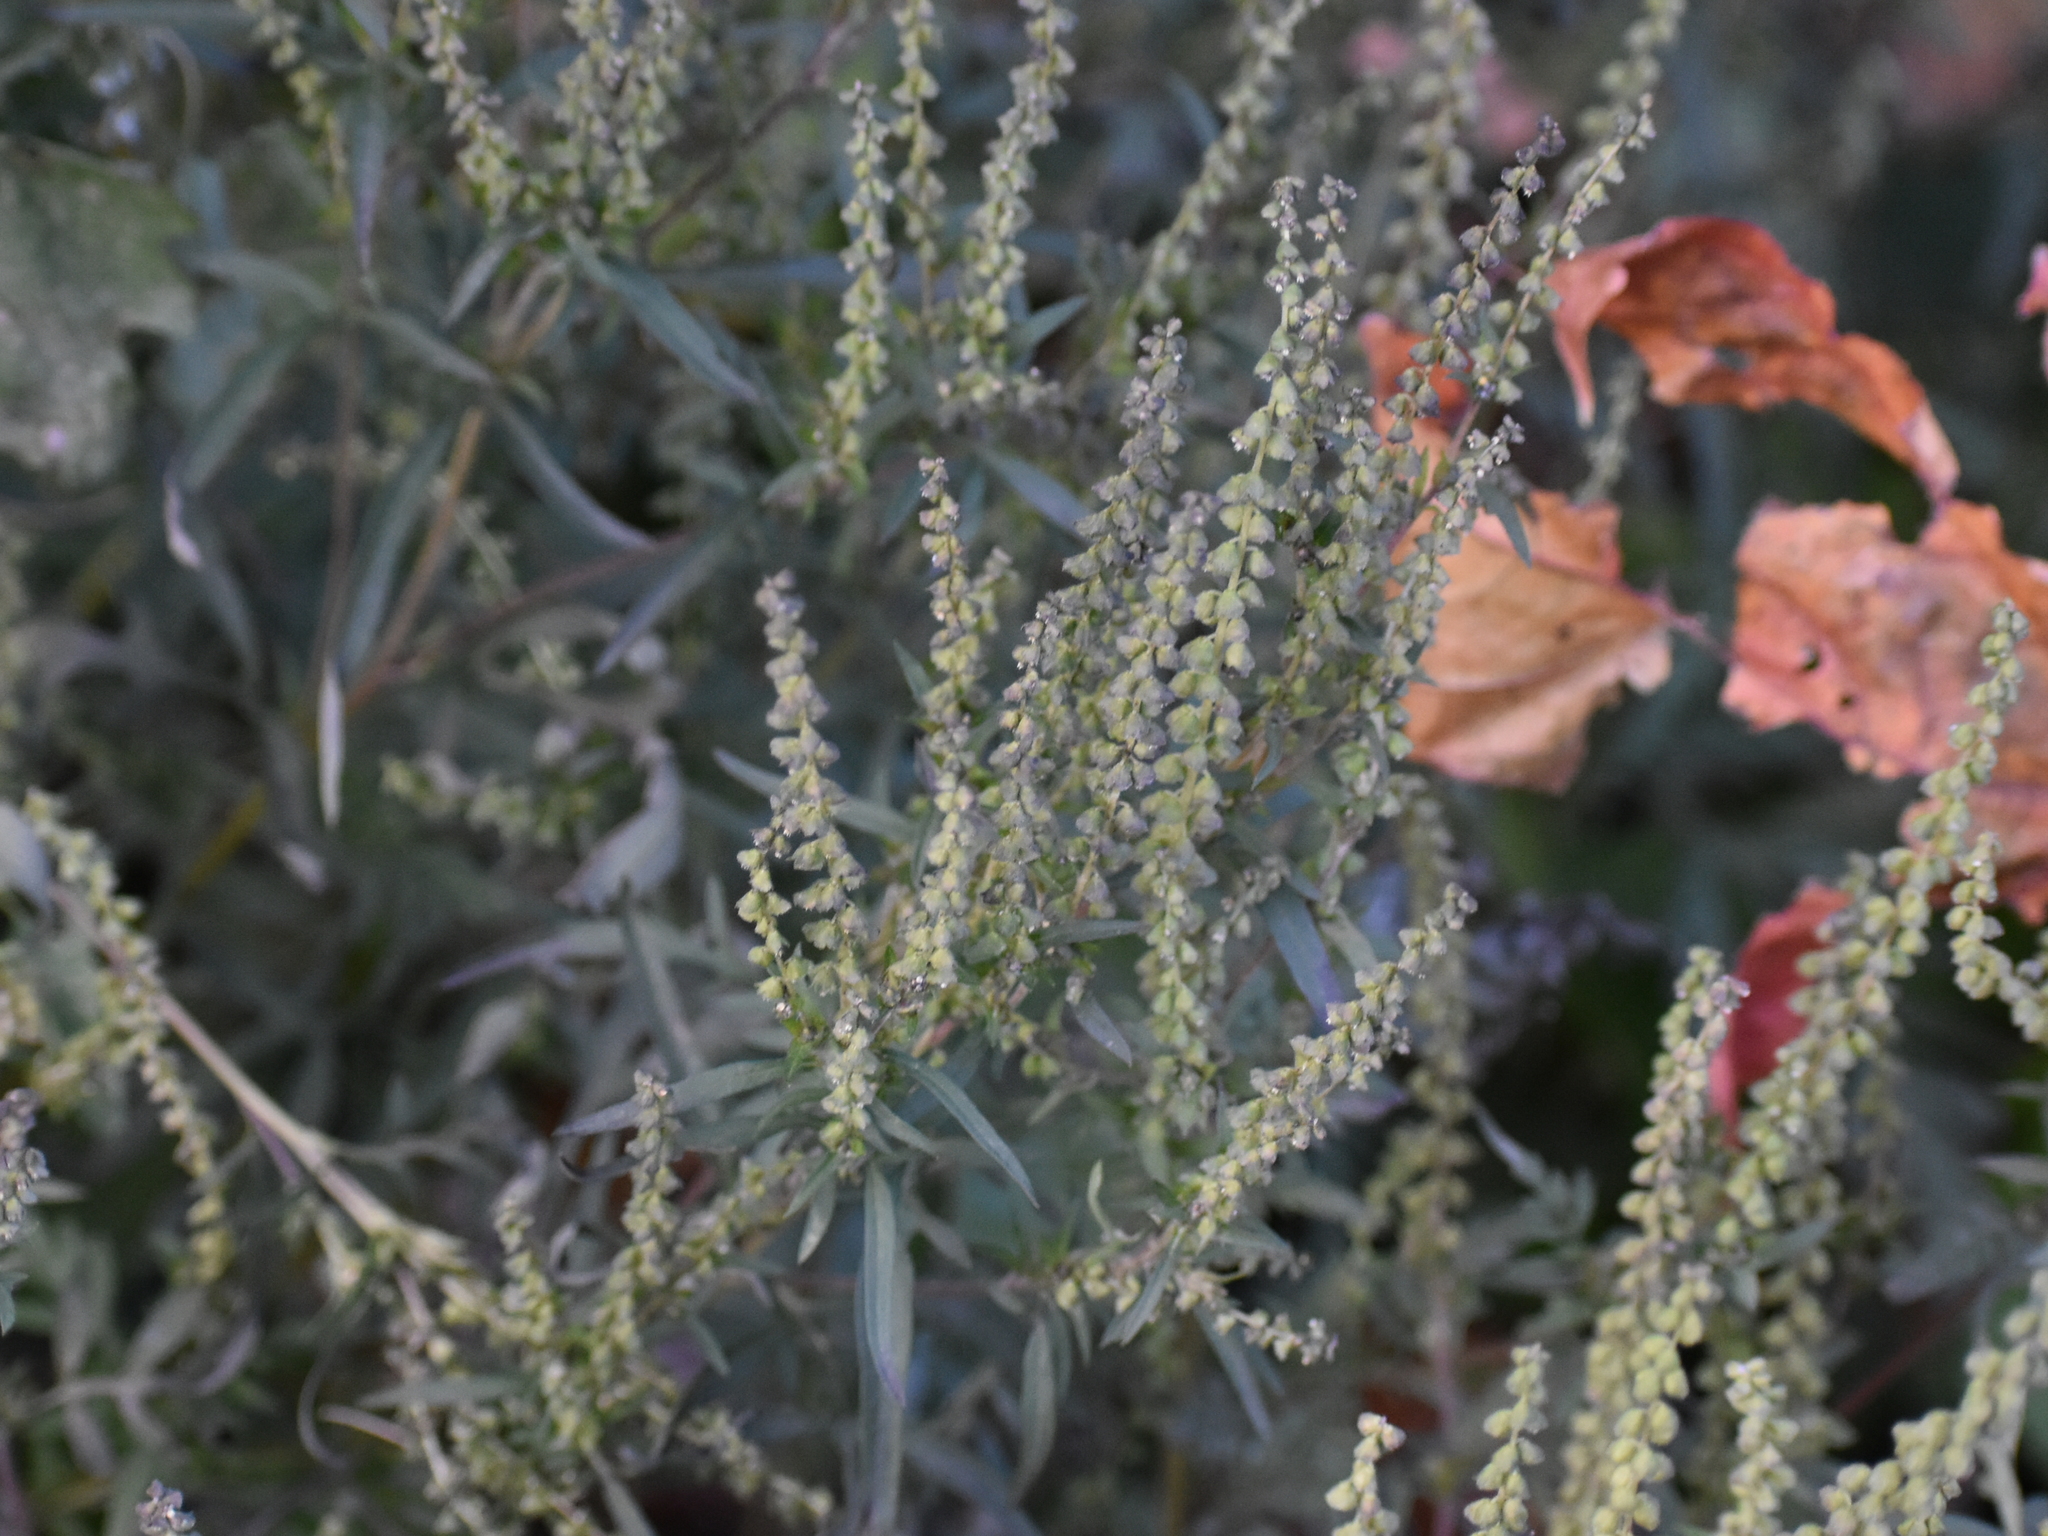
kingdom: Plantae
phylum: Tracheophyta
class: Magnoliopsida
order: Asterales
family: Asteraceae
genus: Ambrosia
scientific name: Ambrosia artemisiifolia
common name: Annual ragweed
